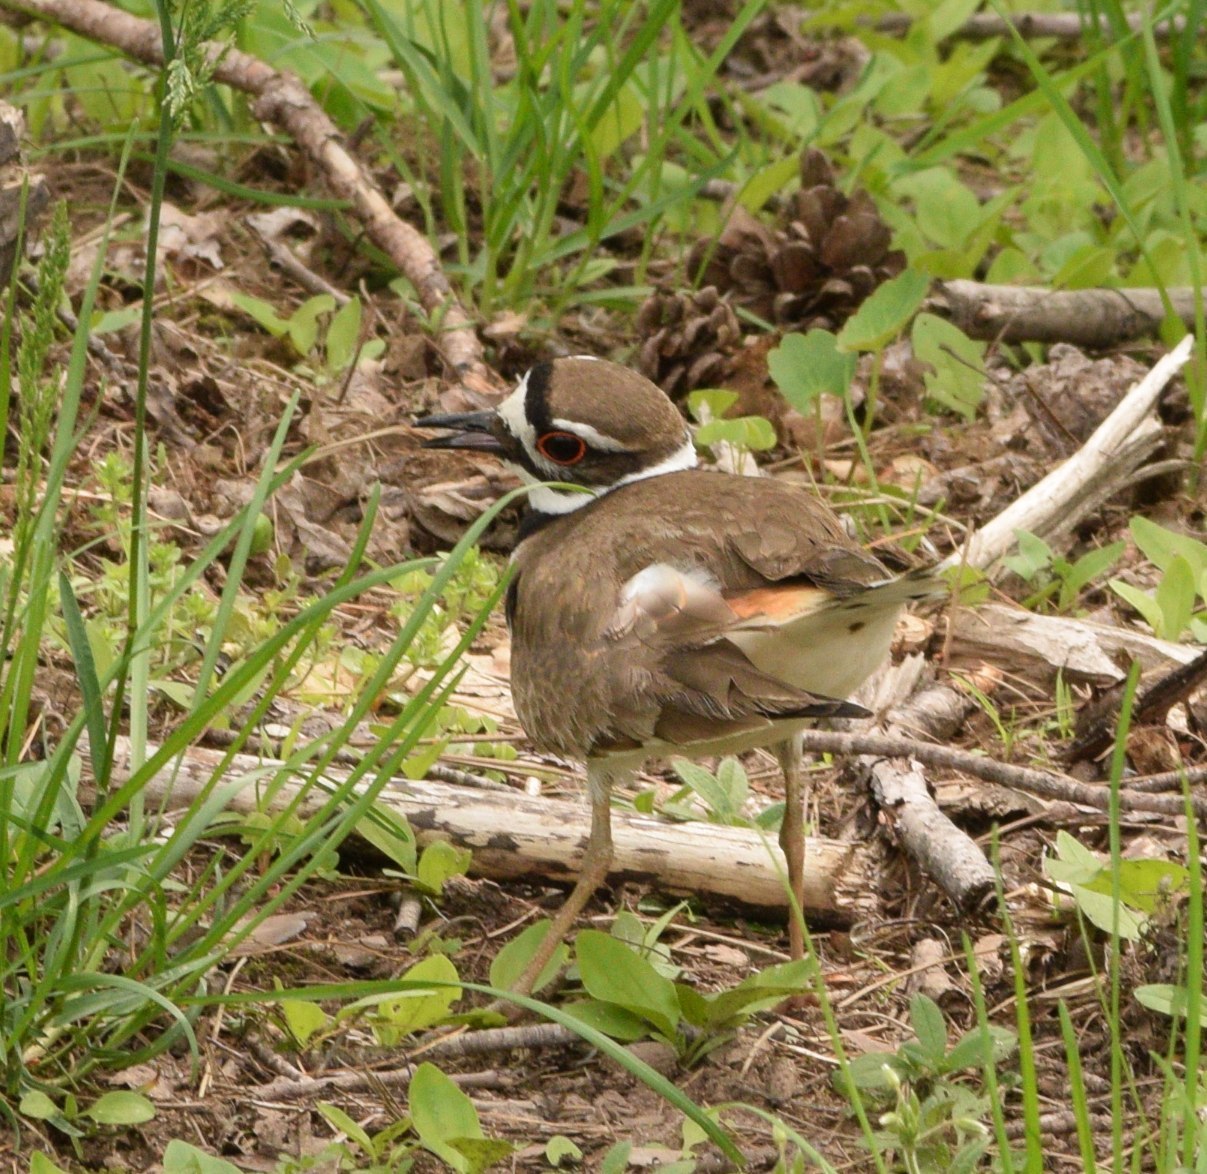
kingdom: Animalia
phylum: Chordata
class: Aves
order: Charadriiformes
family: Charadriidae
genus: Charadrius
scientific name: Charadrius vociferus
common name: Killdeer
